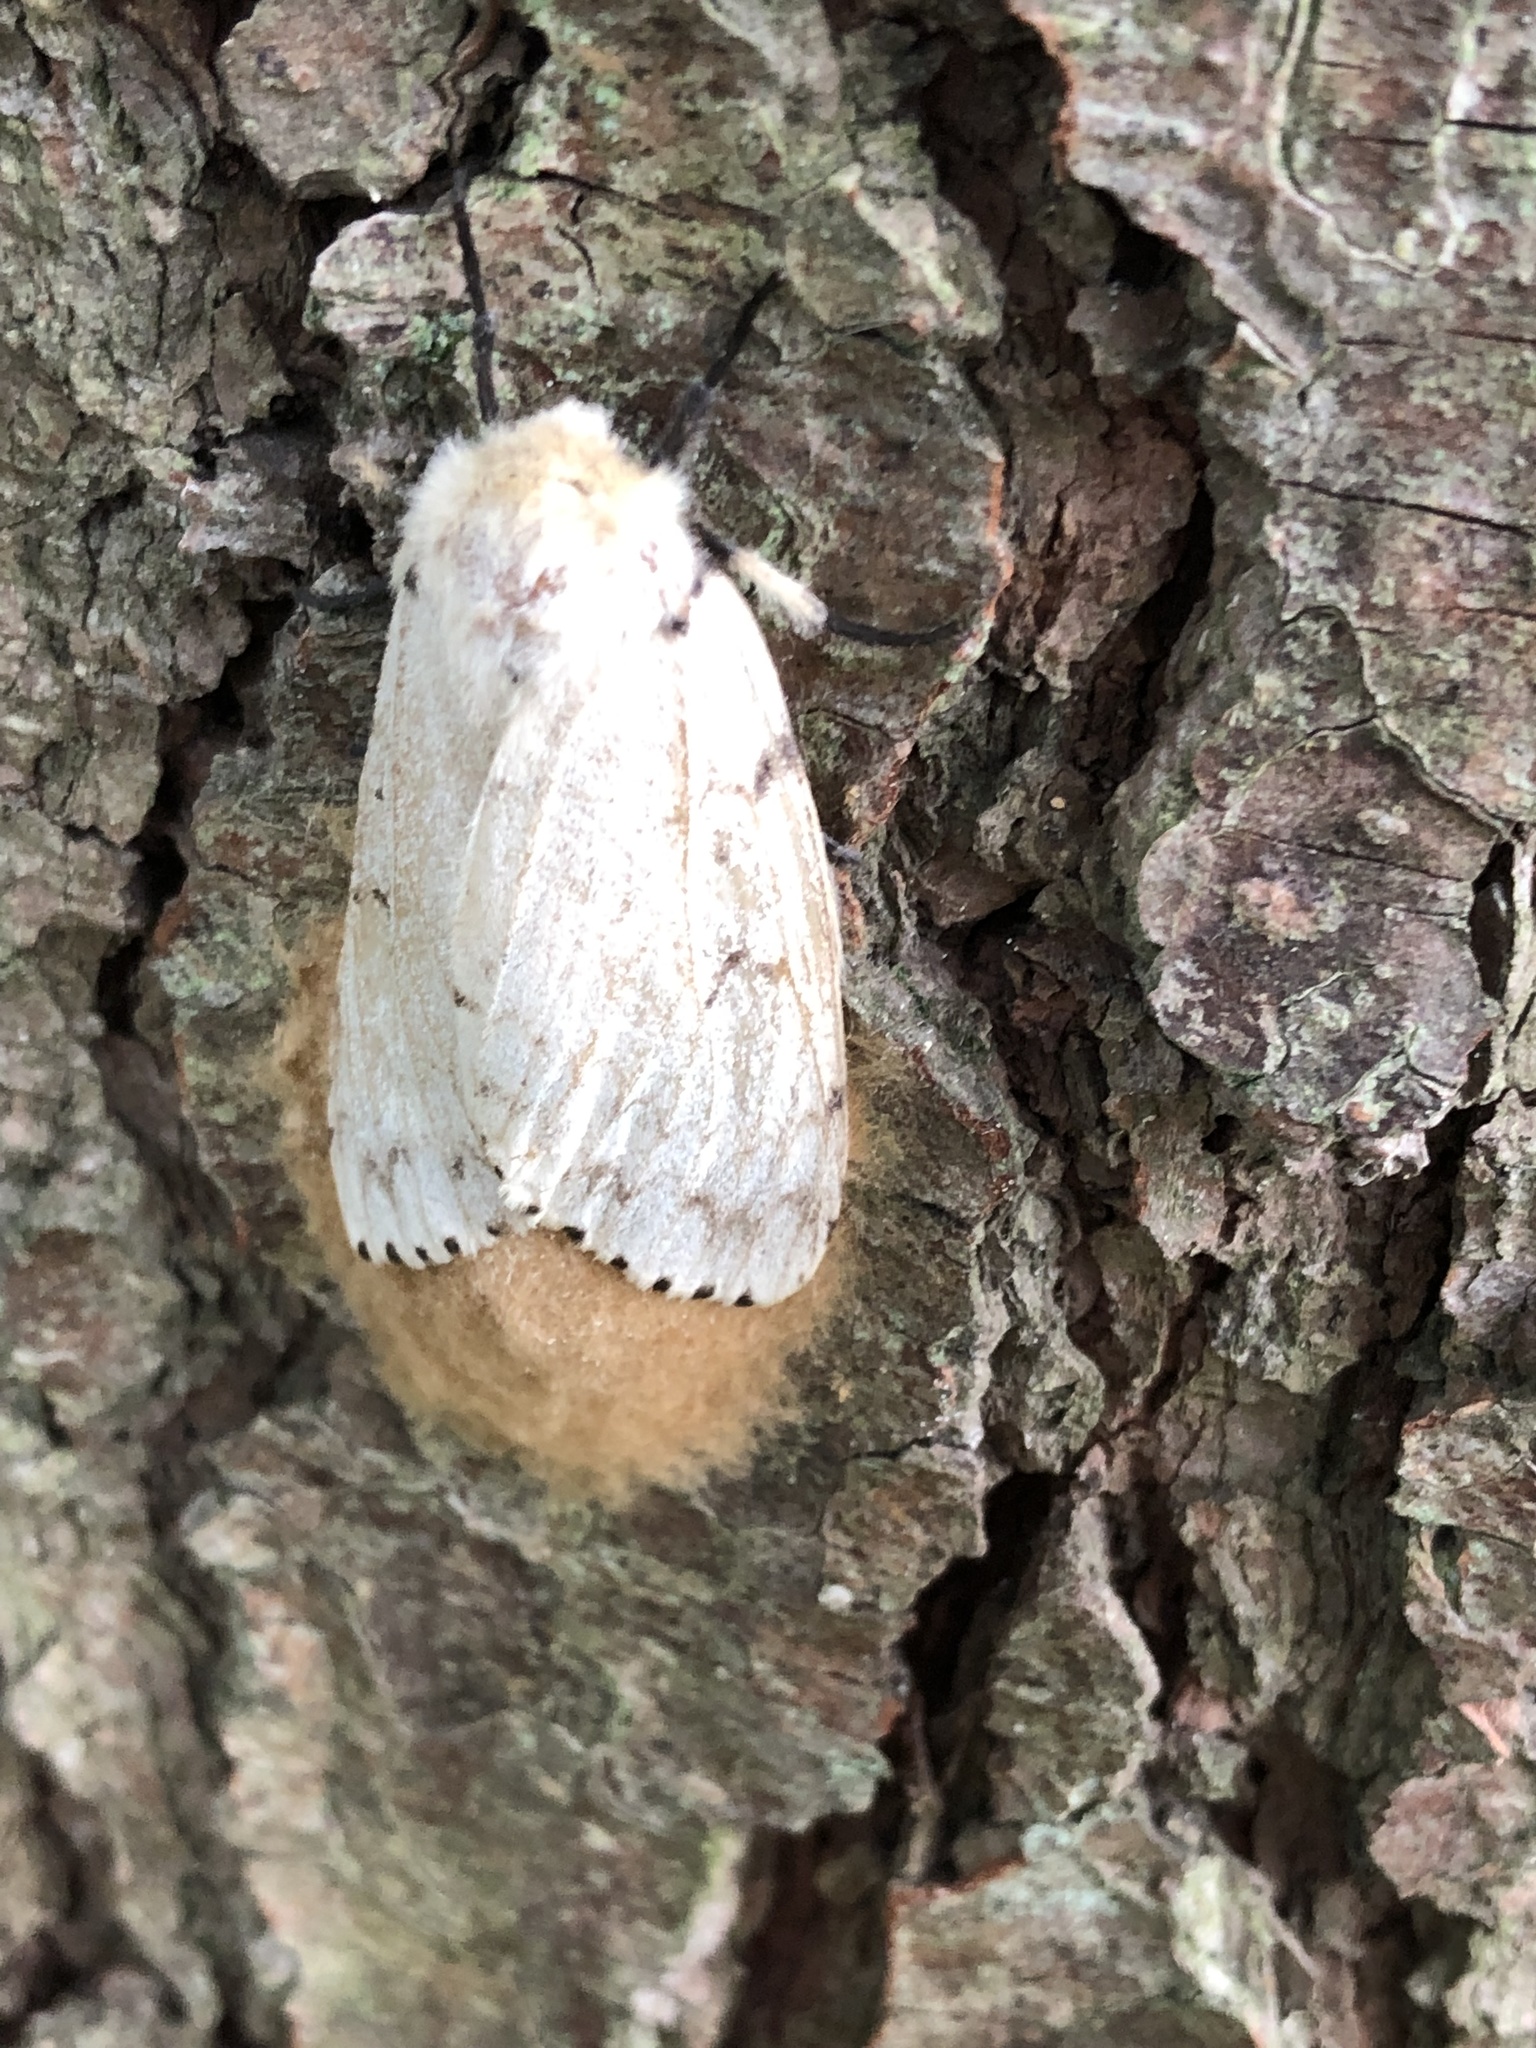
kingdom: Animalia
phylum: Arthropoda
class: Insecta
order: Lepidoptera
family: Erebidae
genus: Lymantria
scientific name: Lymantria dispar
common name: Gypsy moth
